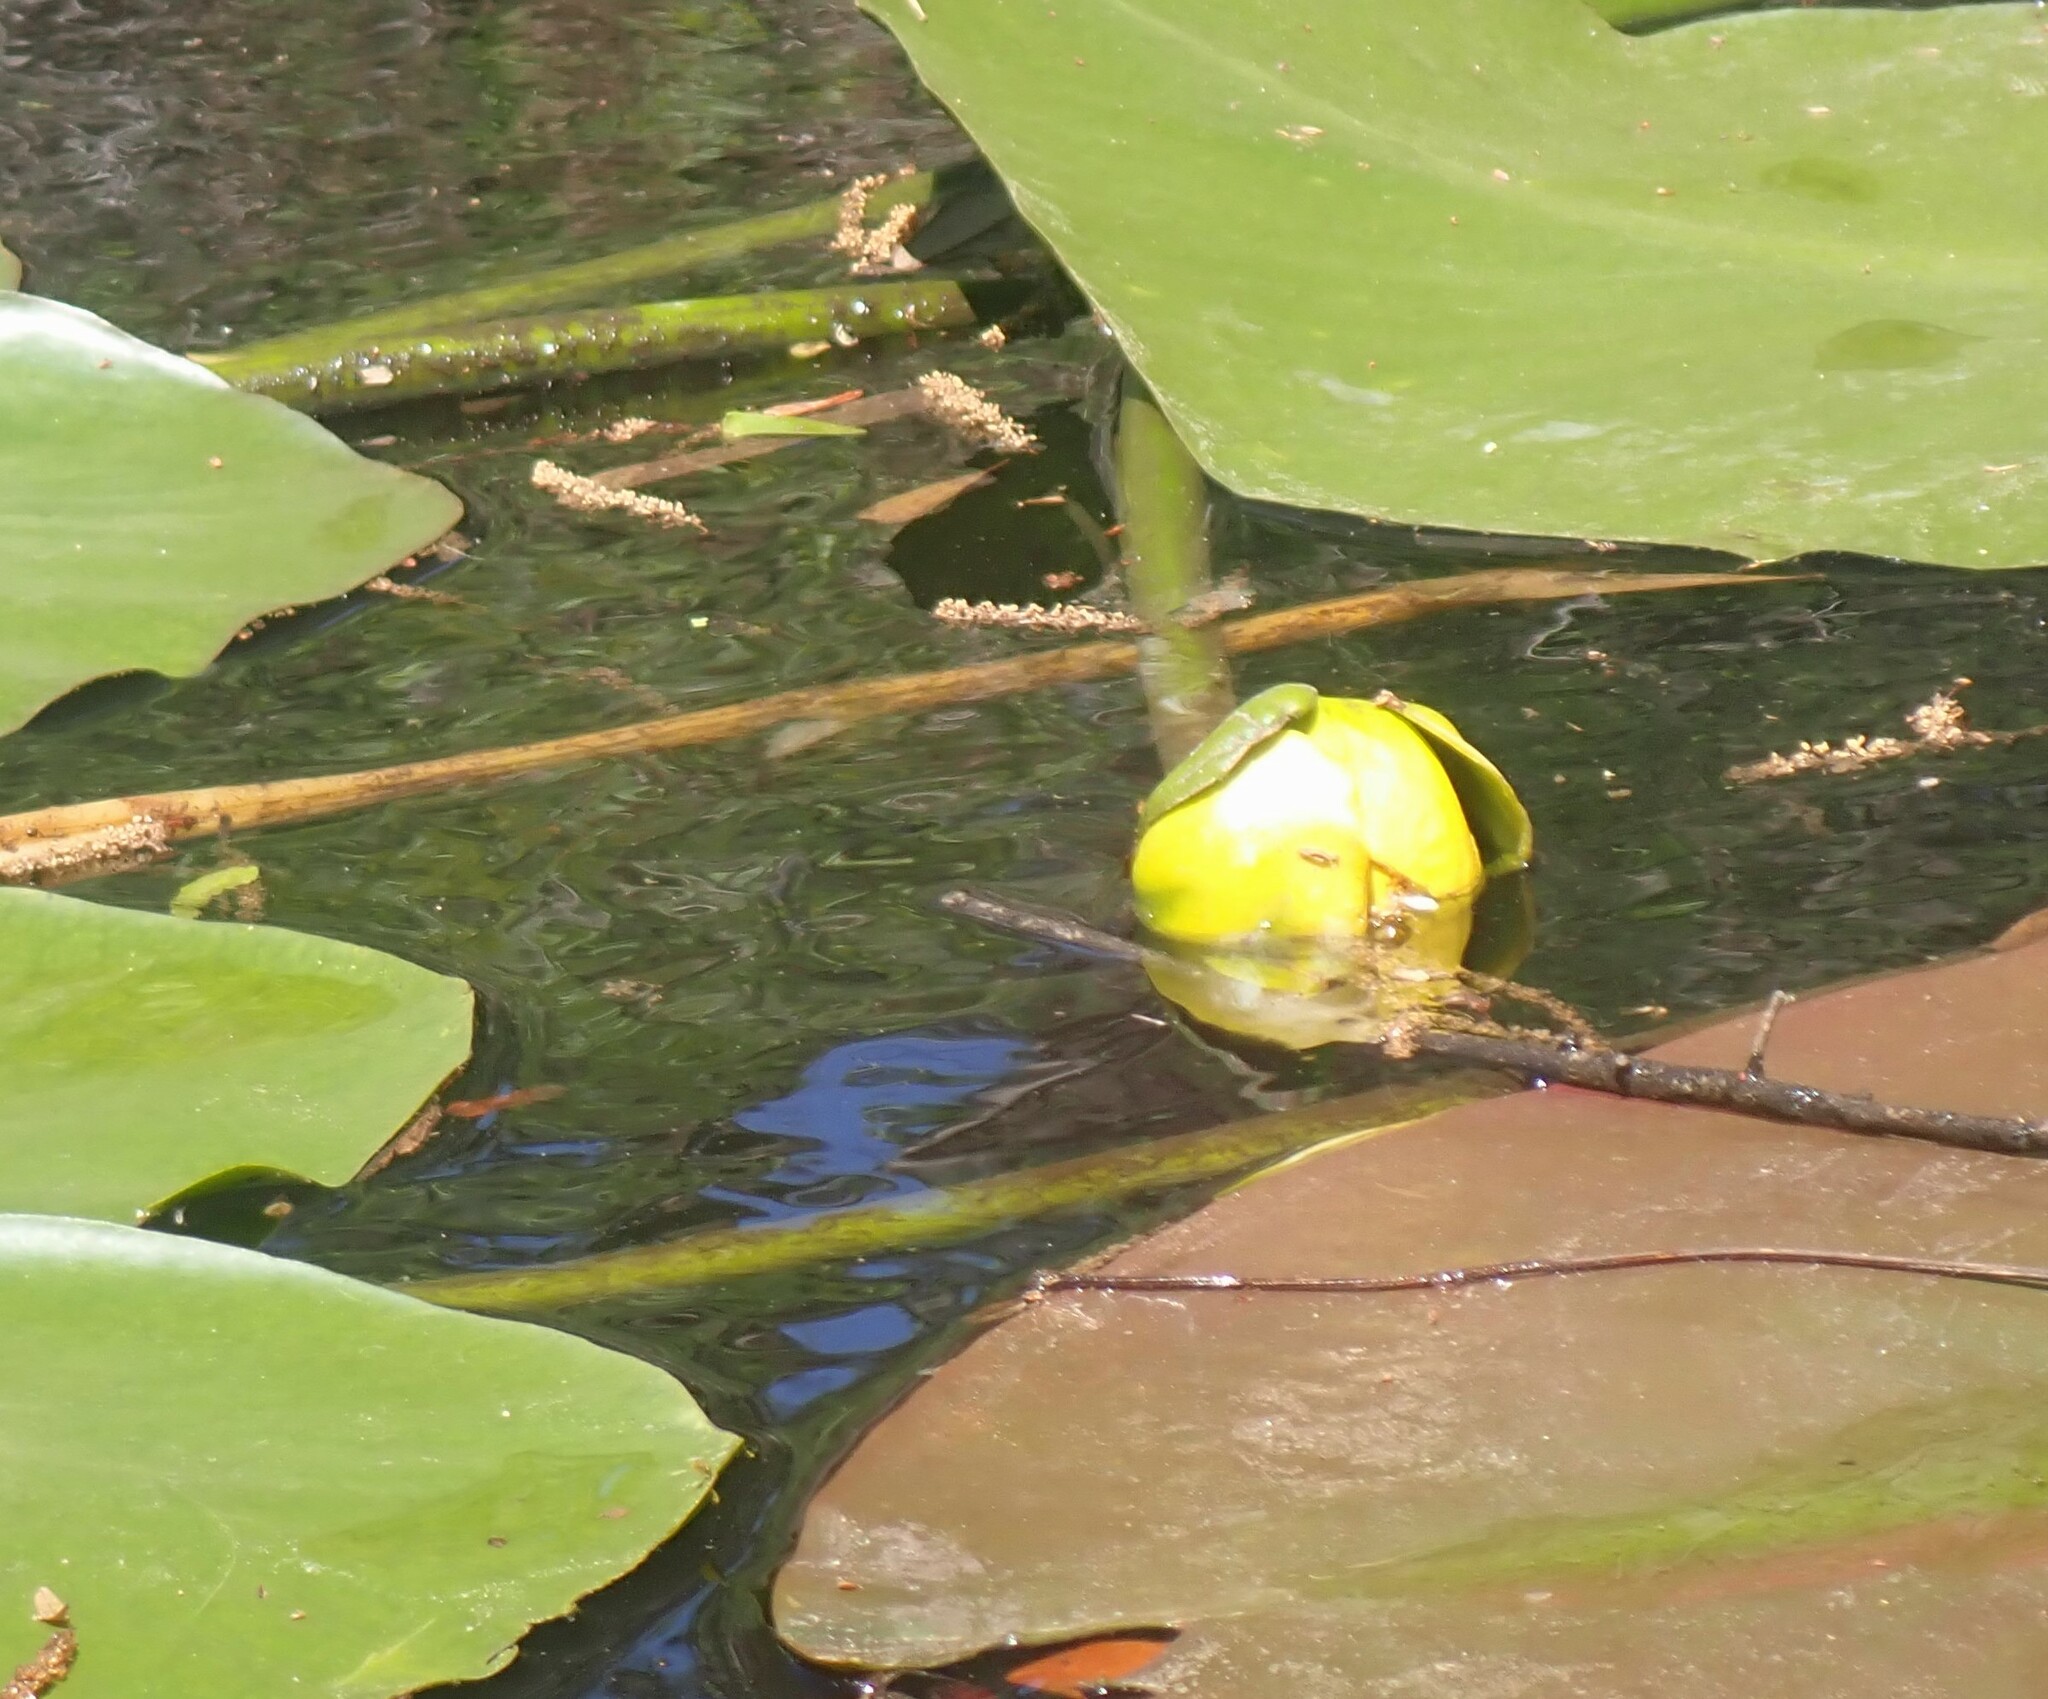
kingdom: Plantae
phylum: Tracheophyta
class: Magnoliopsida
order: Nymphaeales
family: Nymphaeaceae
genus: Nuphar
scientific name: Nuphar advena
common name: Spatter-dock
